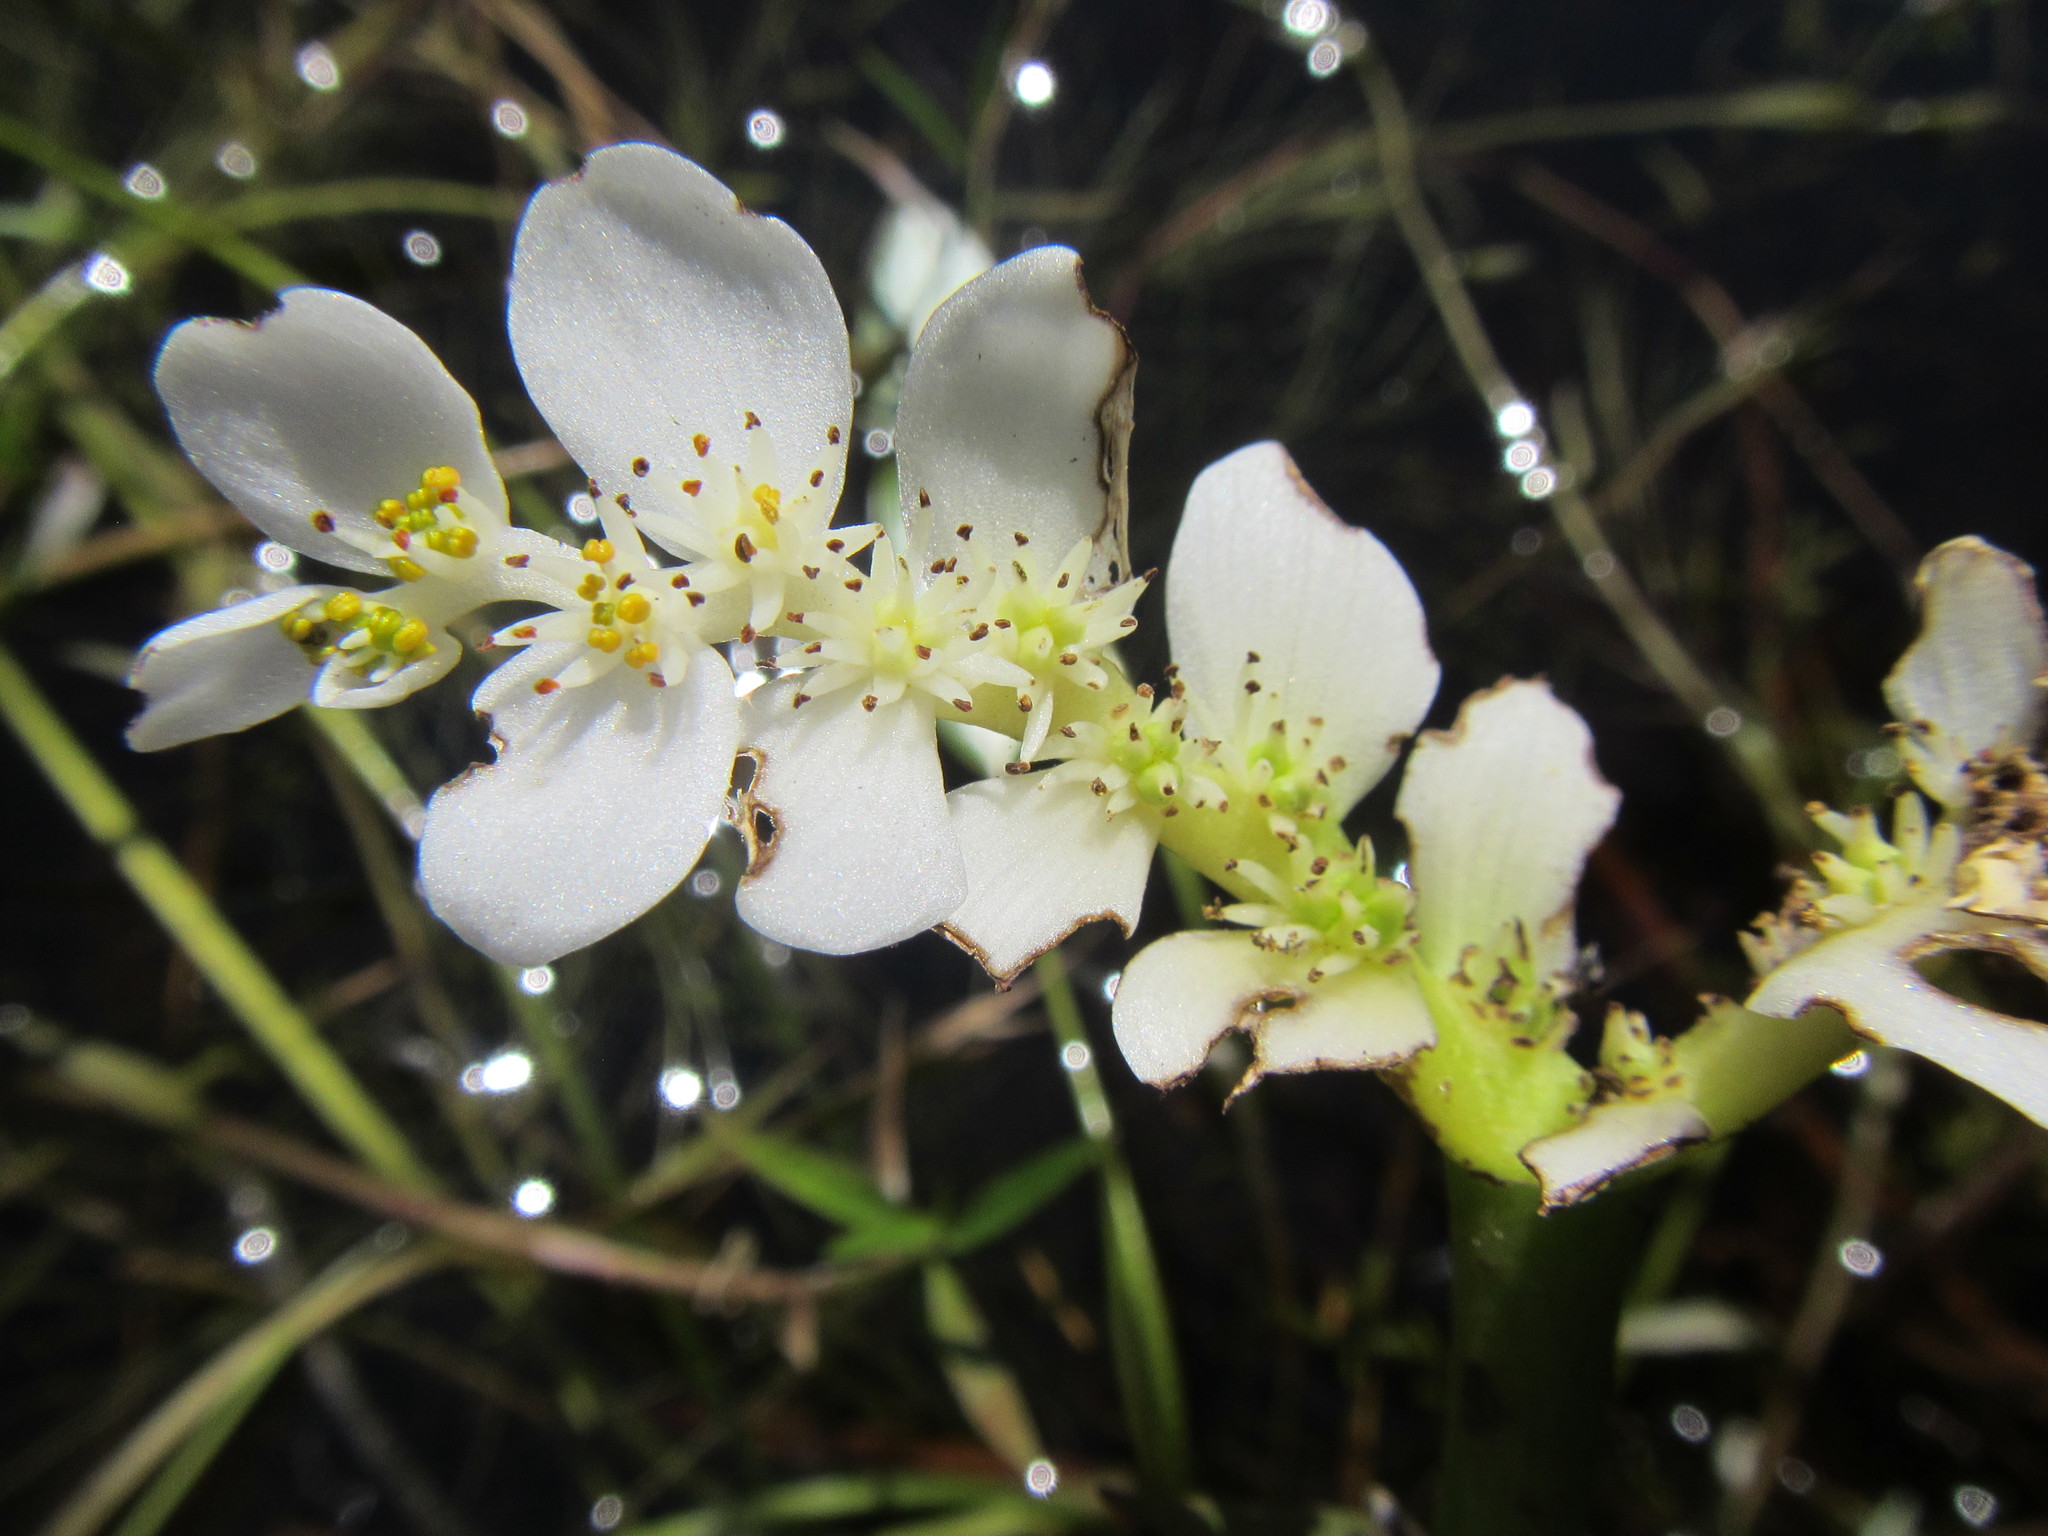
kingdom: Plantae
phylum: Tracheophyta
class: Liliopsida
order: Alismatales
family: Aponogetonaceae
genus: Aponogeton
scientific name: Aponogeton distachyos
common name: Cape-pondweed
